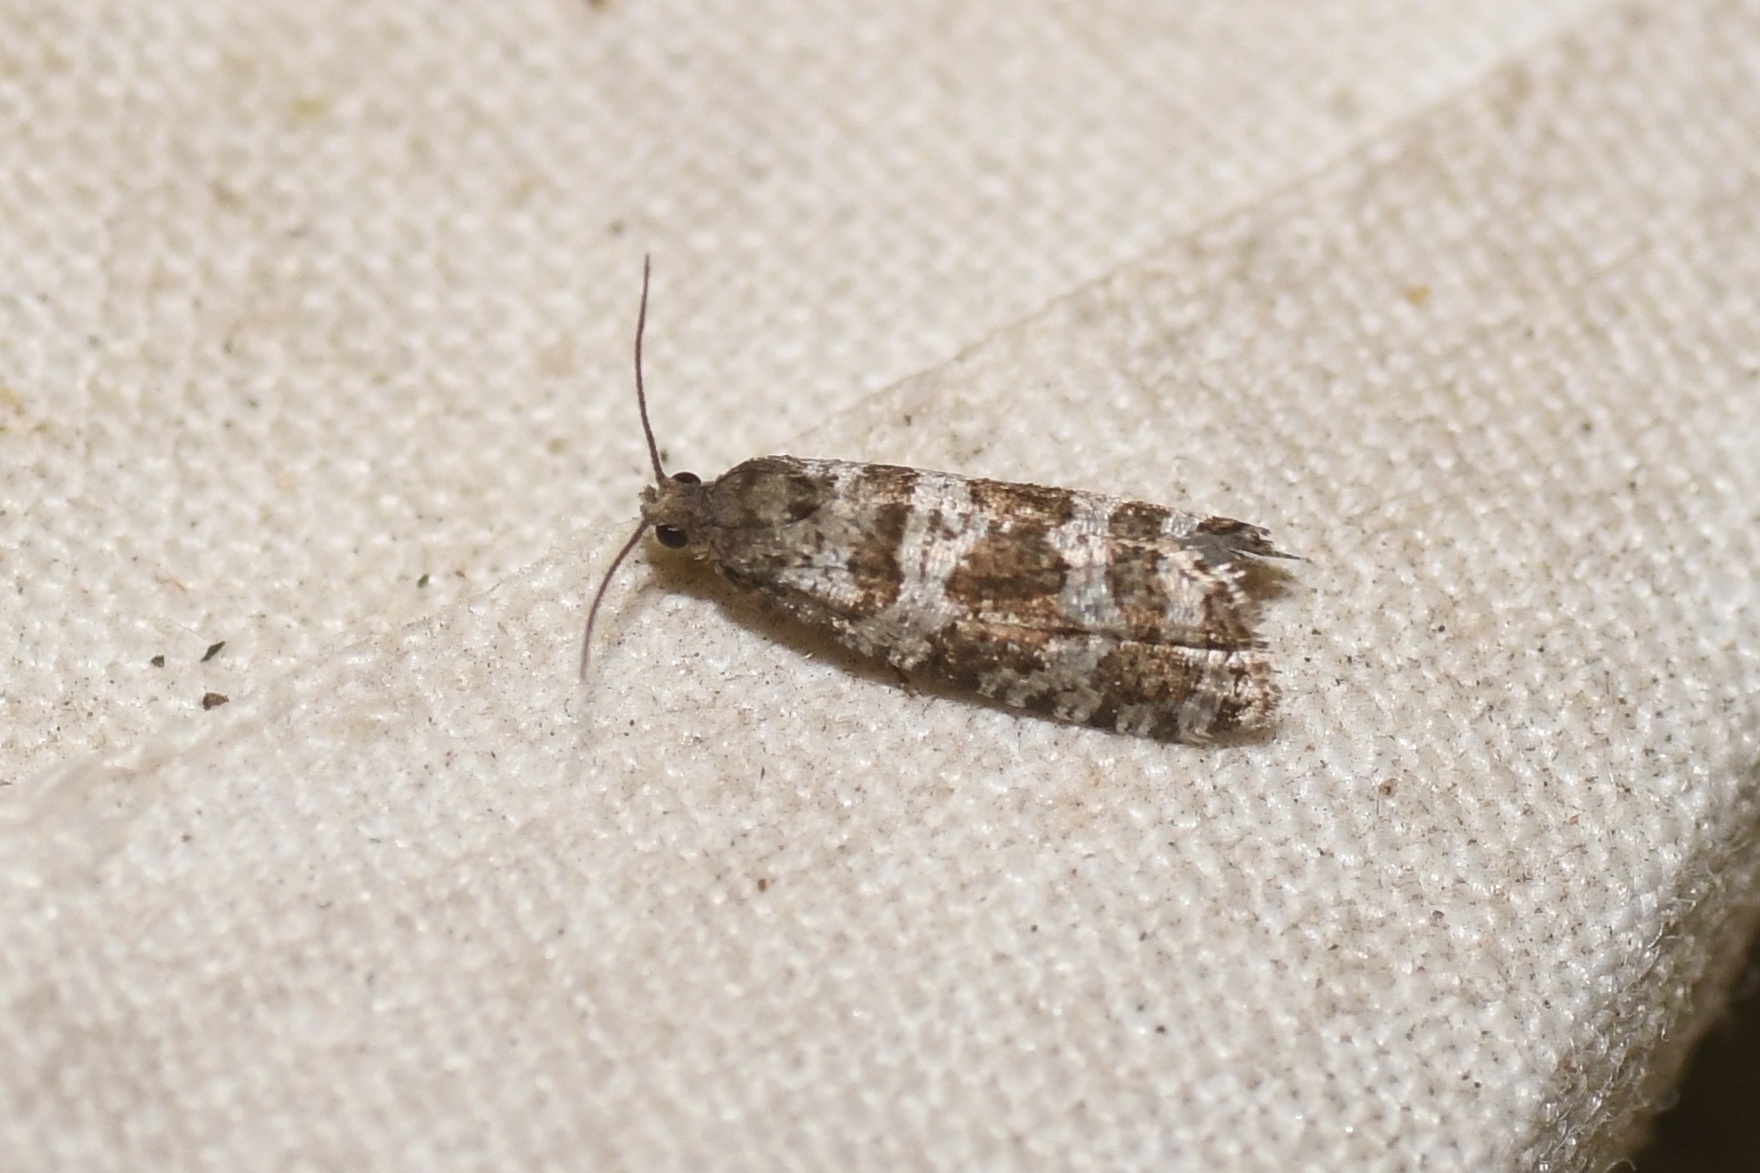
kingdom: Animalia
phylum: Arthropoda
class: Insecta
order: Lepidoptera
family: Tortricidae
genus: Taniva
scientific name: Taniva albolineana
